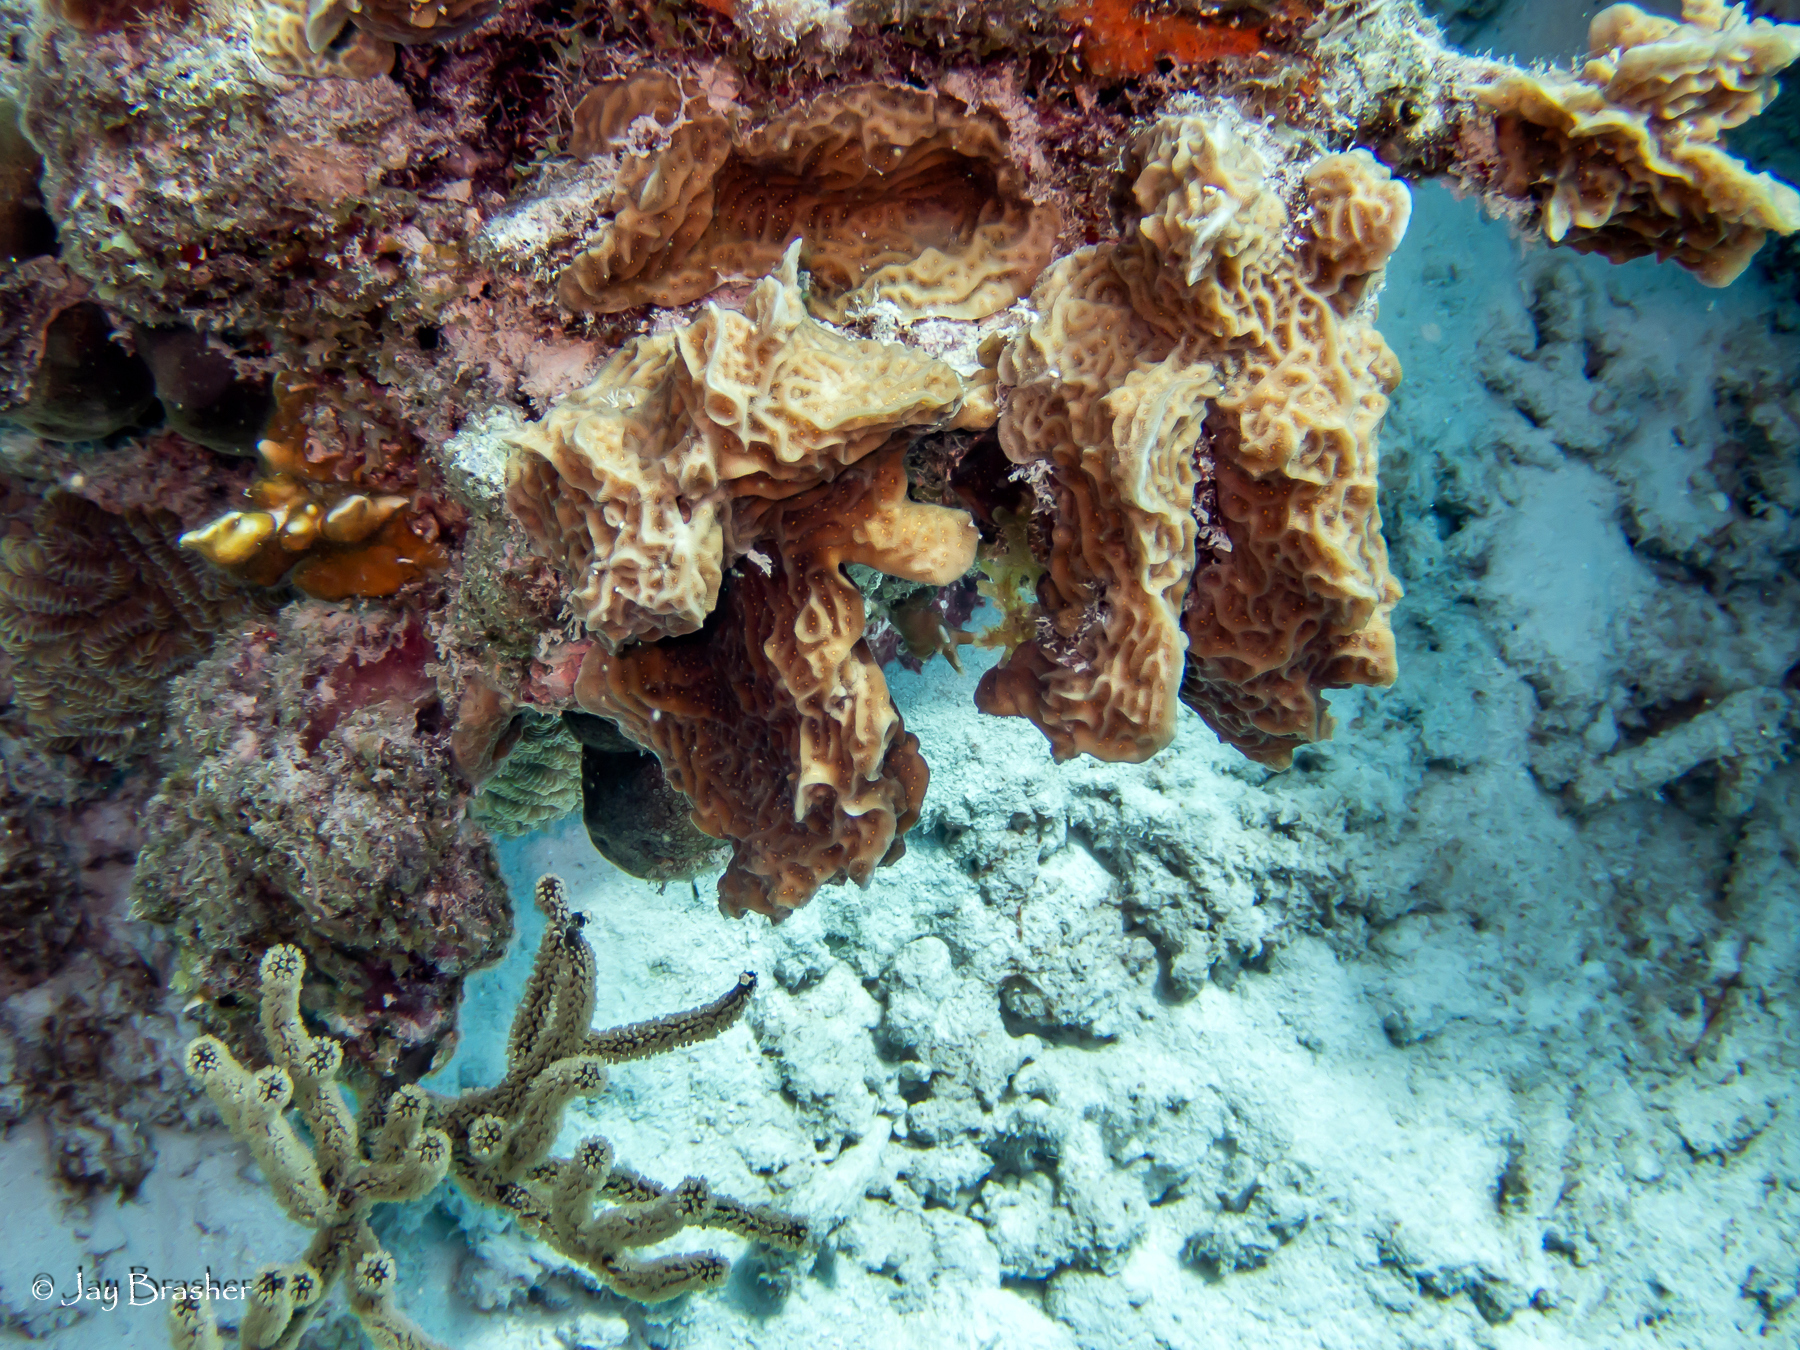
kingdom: Animalia
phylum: Cnidaria
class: Anthozoa
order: Scleractinia
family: Agariciidae
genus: Agaricia
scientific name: Agaricia agaricites
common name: Lettuce coral
